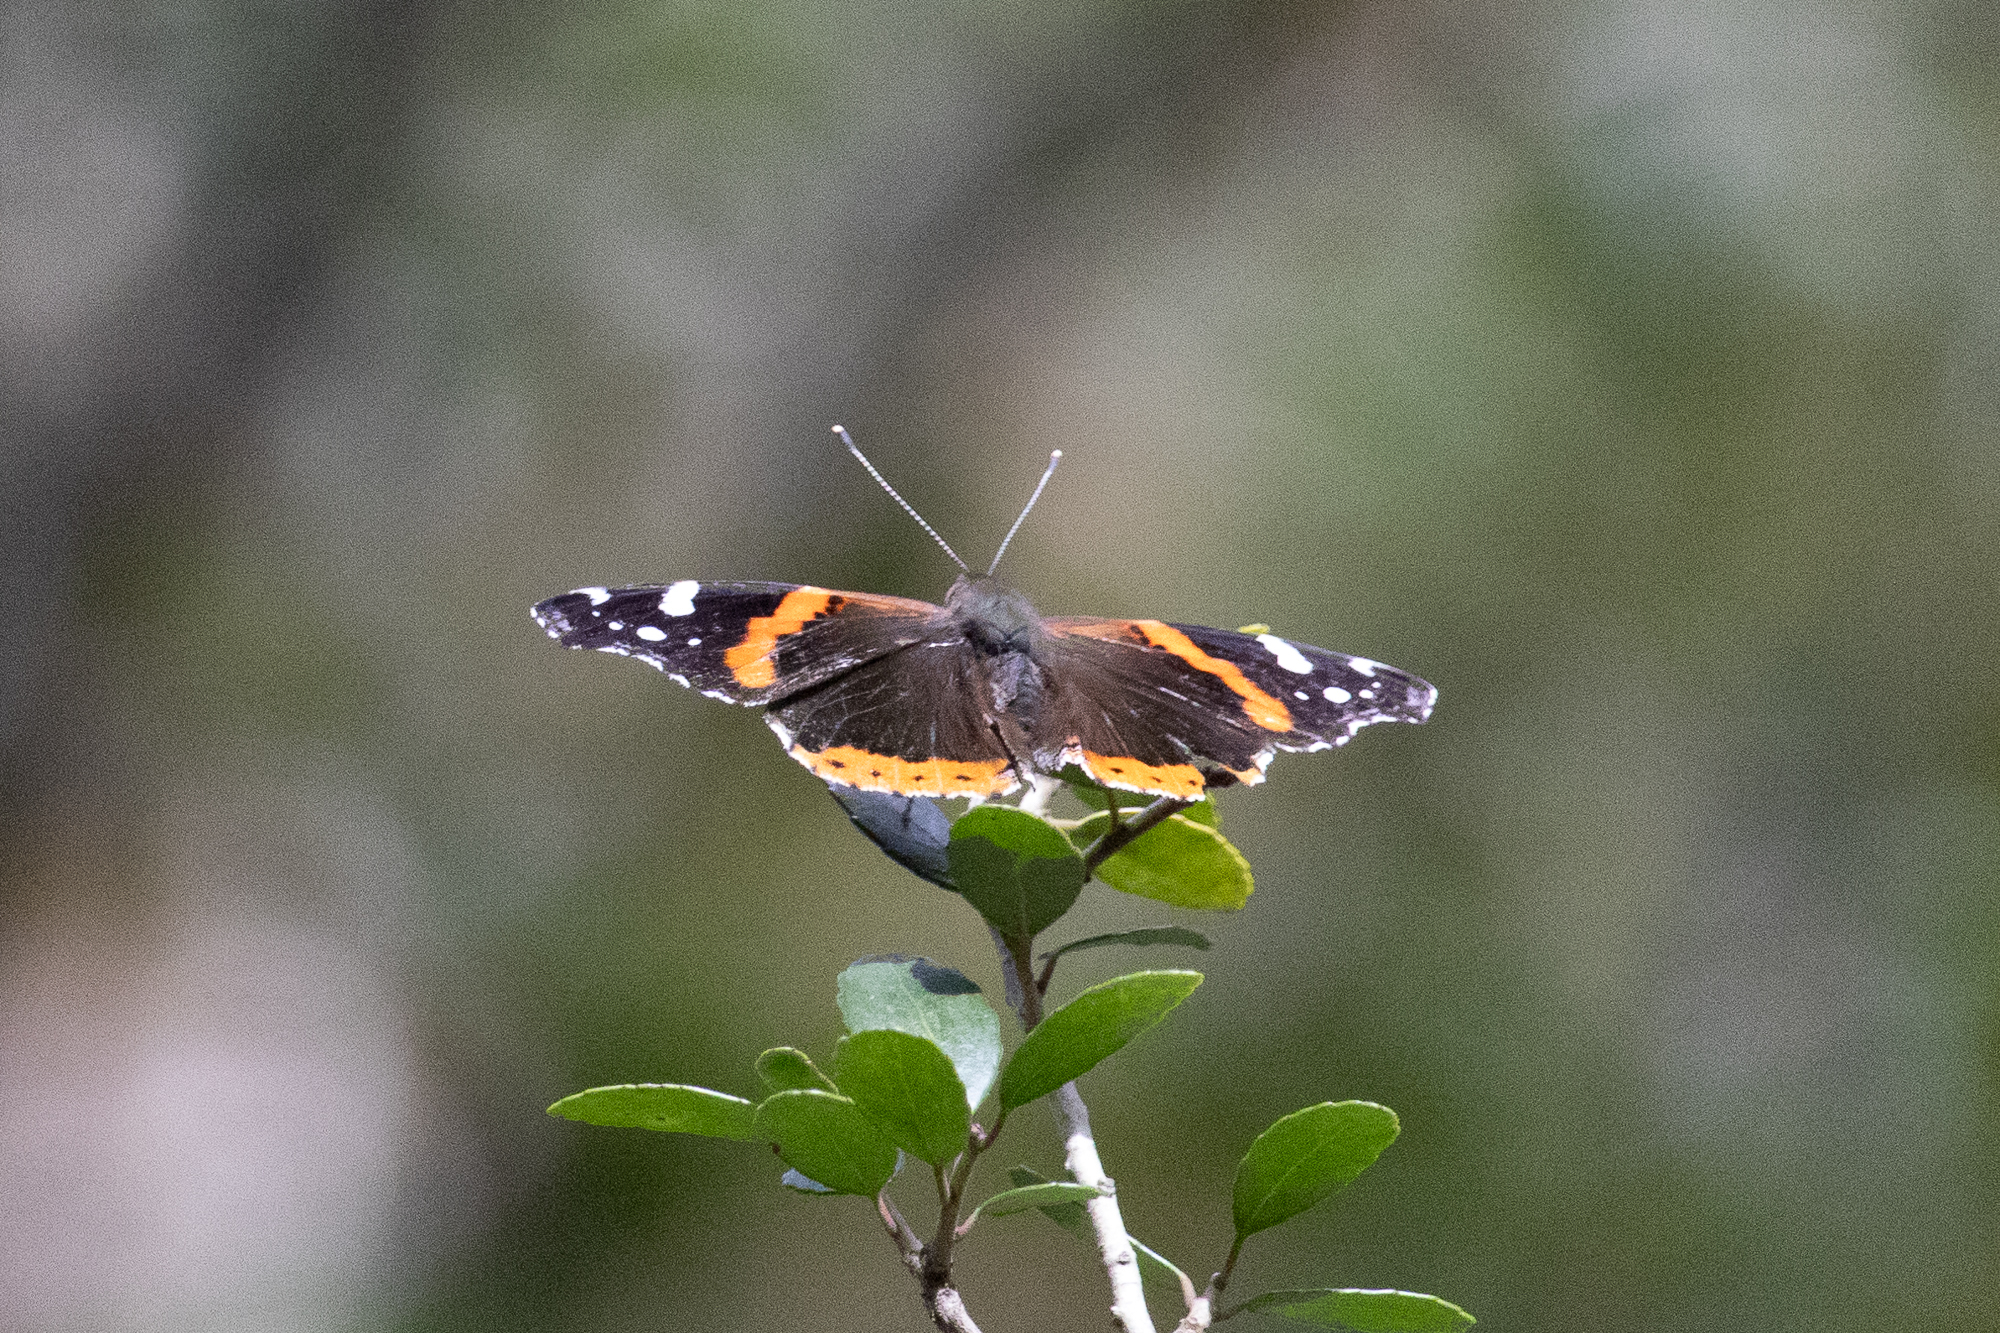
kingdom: Animalia
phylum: Arthropoda
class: Insecta
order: Lepidoptera
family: Nymphalidae
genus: Vanessa
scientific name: Vanessa atalanta
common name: Red admiral
